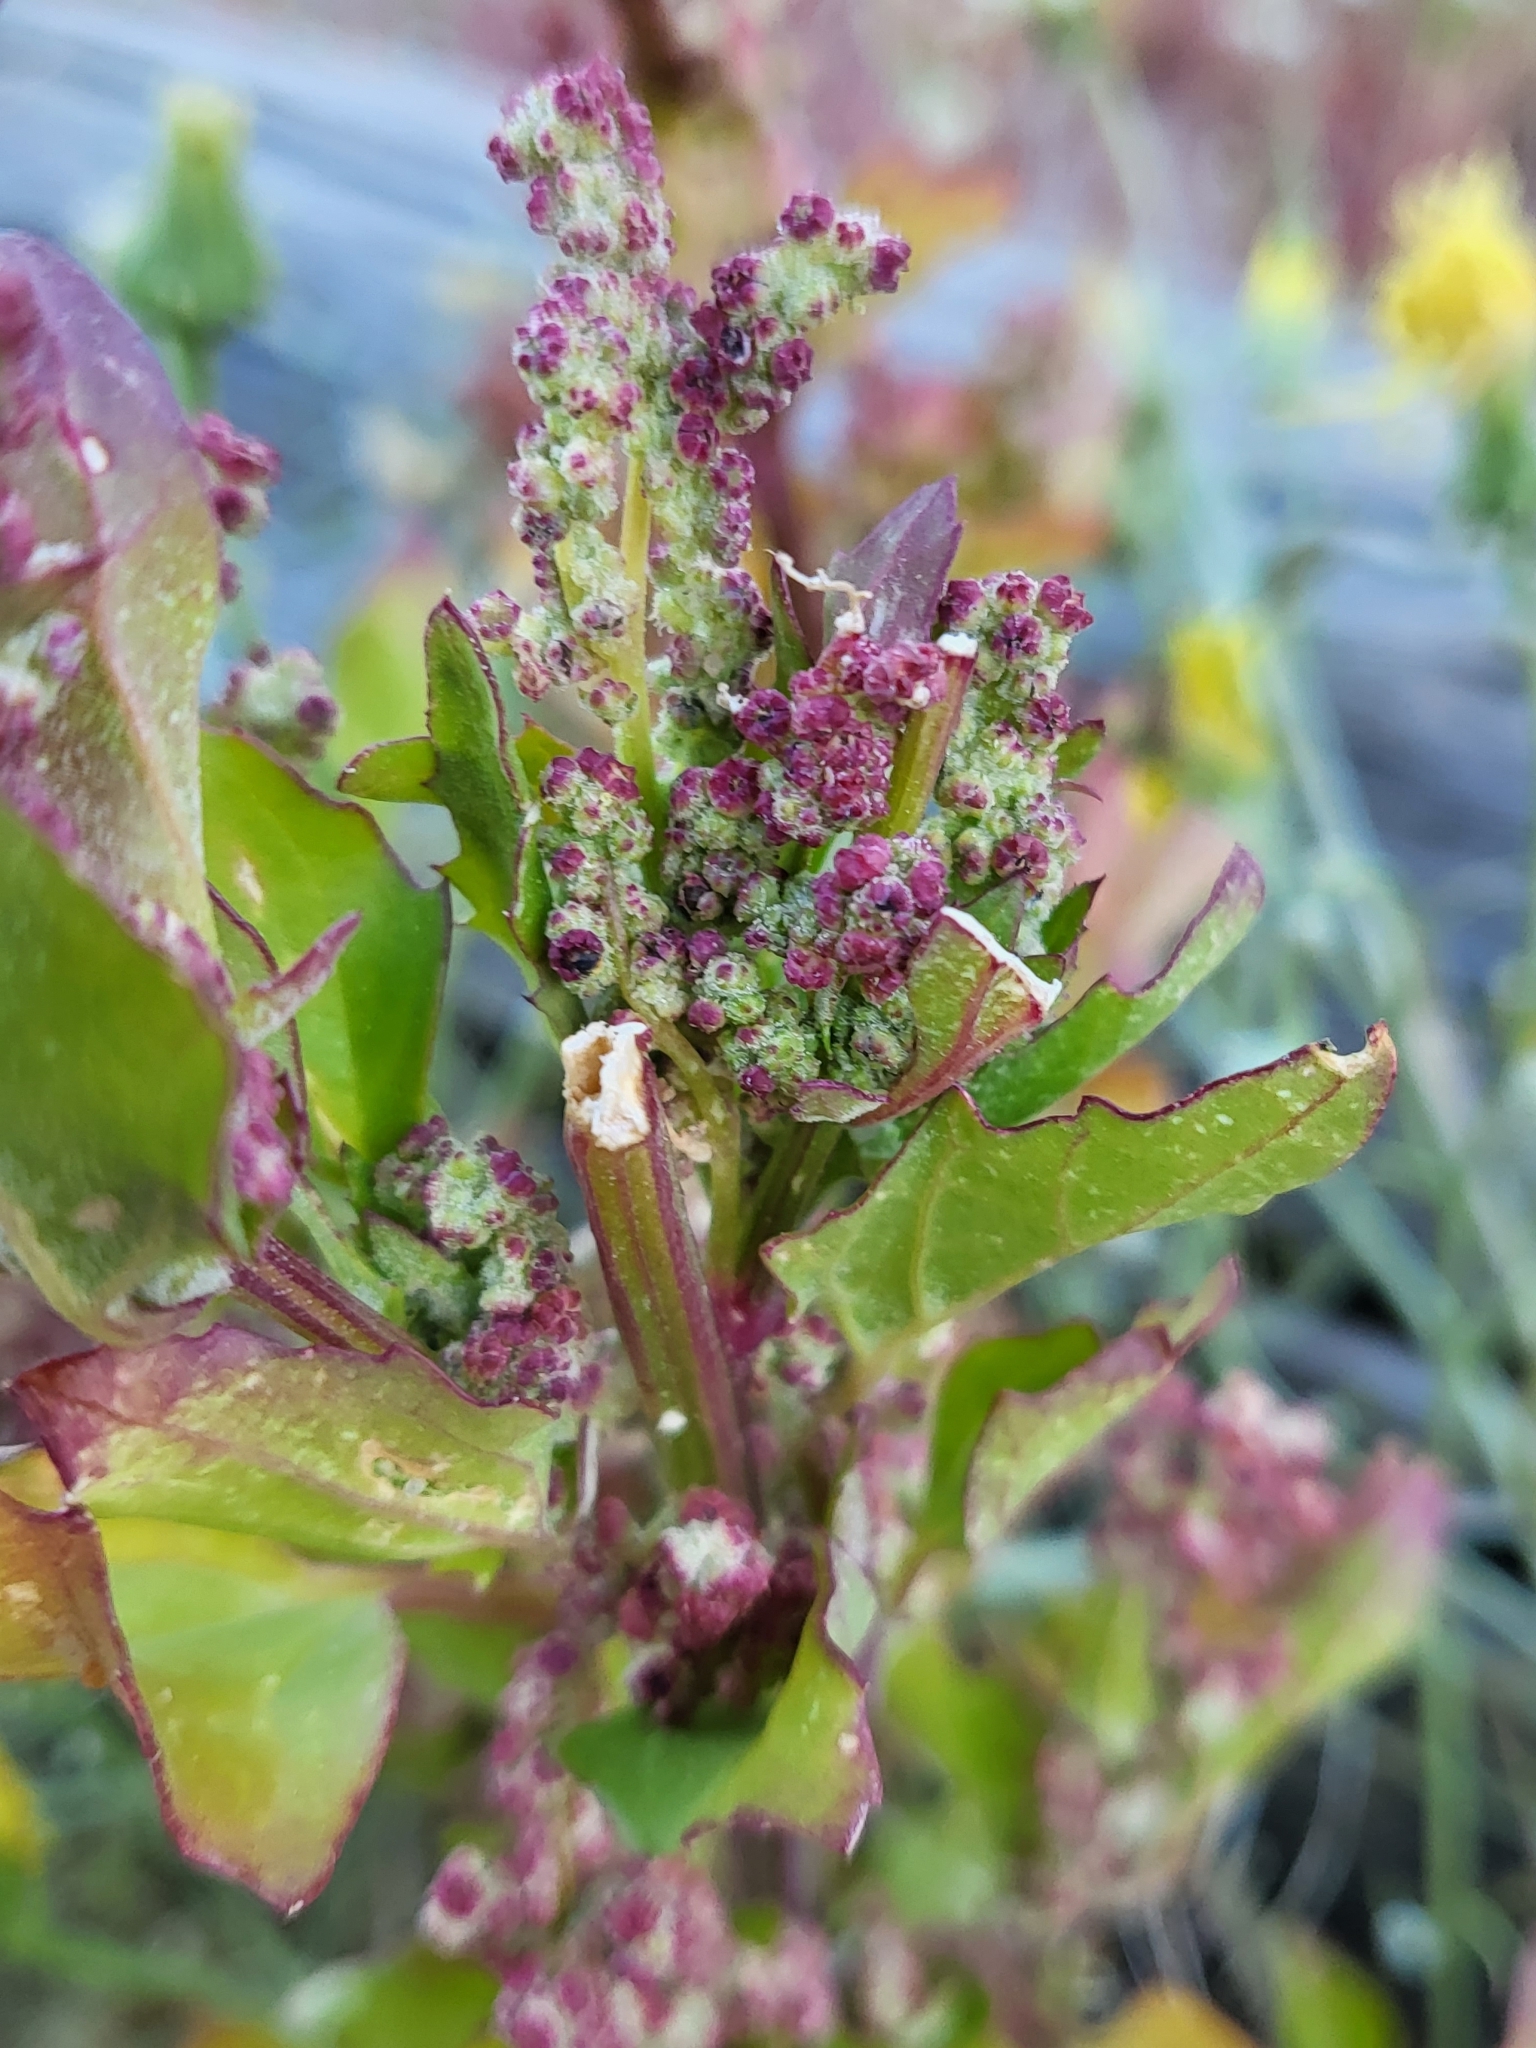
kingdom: Plantae
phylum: Tracheophyta
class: Magnoliopsida
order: Caryophyllales
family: Amaranthaceae
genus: Chenopodiastrum
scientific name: Chenopodiastrum murale
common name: Sowbane
